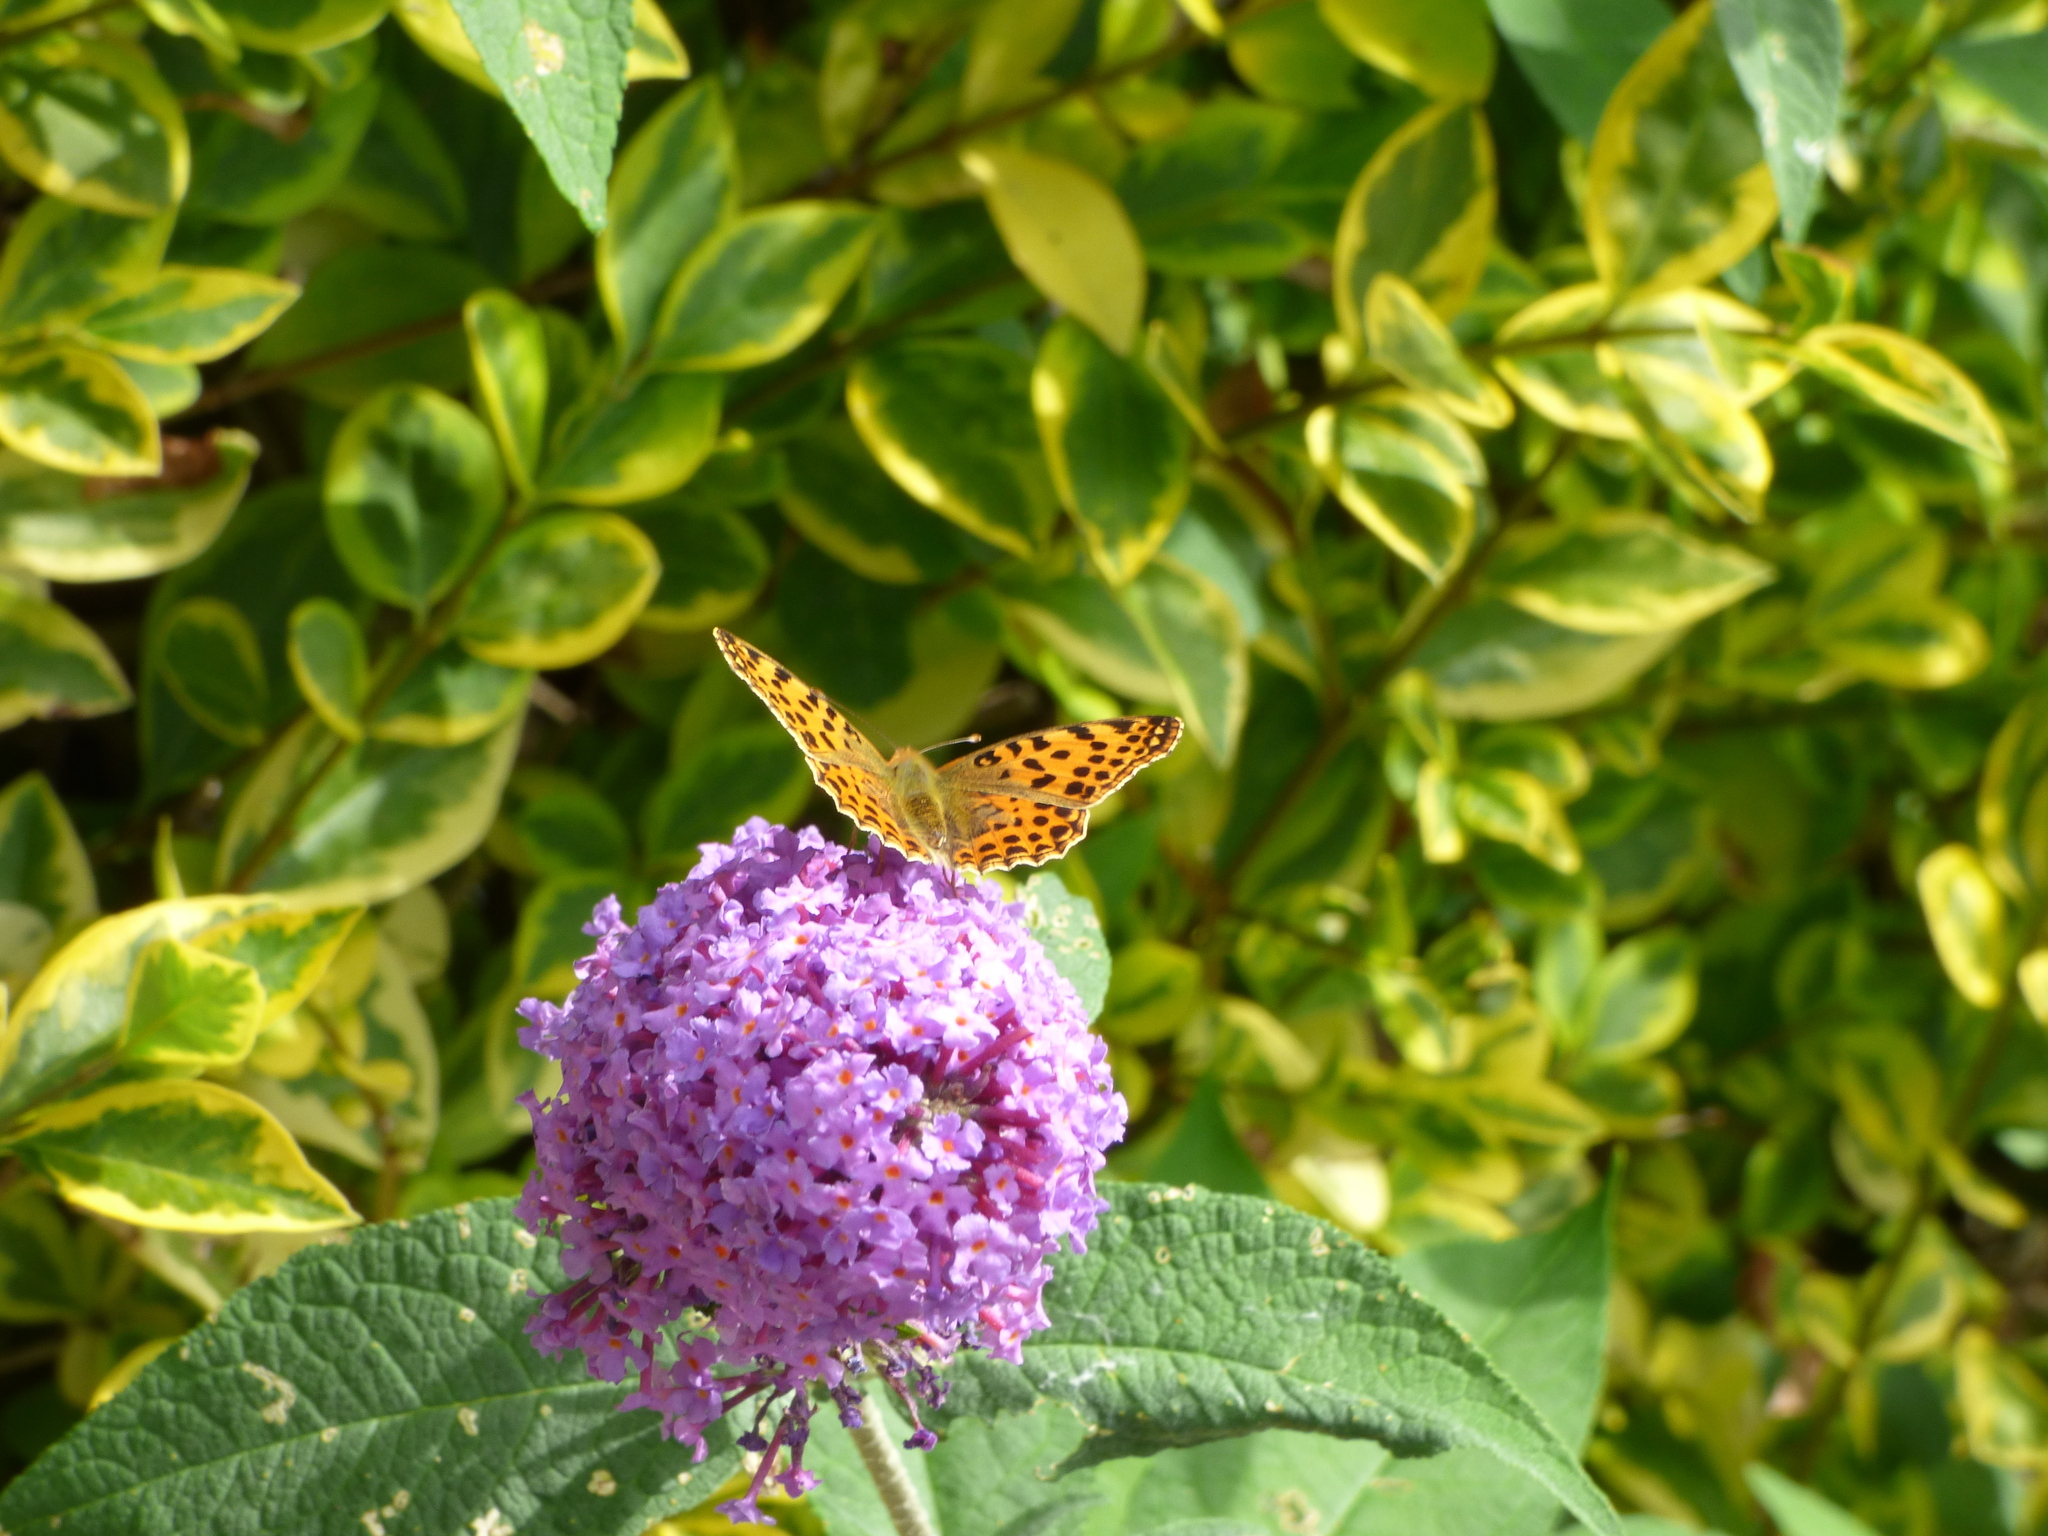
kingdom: Animalia
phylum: Arthropoda
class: Insecta
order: Lepidoptera
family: Nymphalidae
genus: Issoria
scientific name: Issoria lathonia
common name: Queen of spain fritillary
